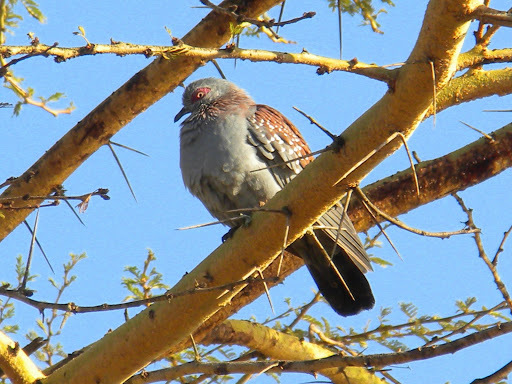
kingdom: Animalia
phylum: Chordata
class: Aves
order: Columbiformes
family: Columbidae
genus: Columba
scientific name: Columba guinea
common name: Speckled pigeon
